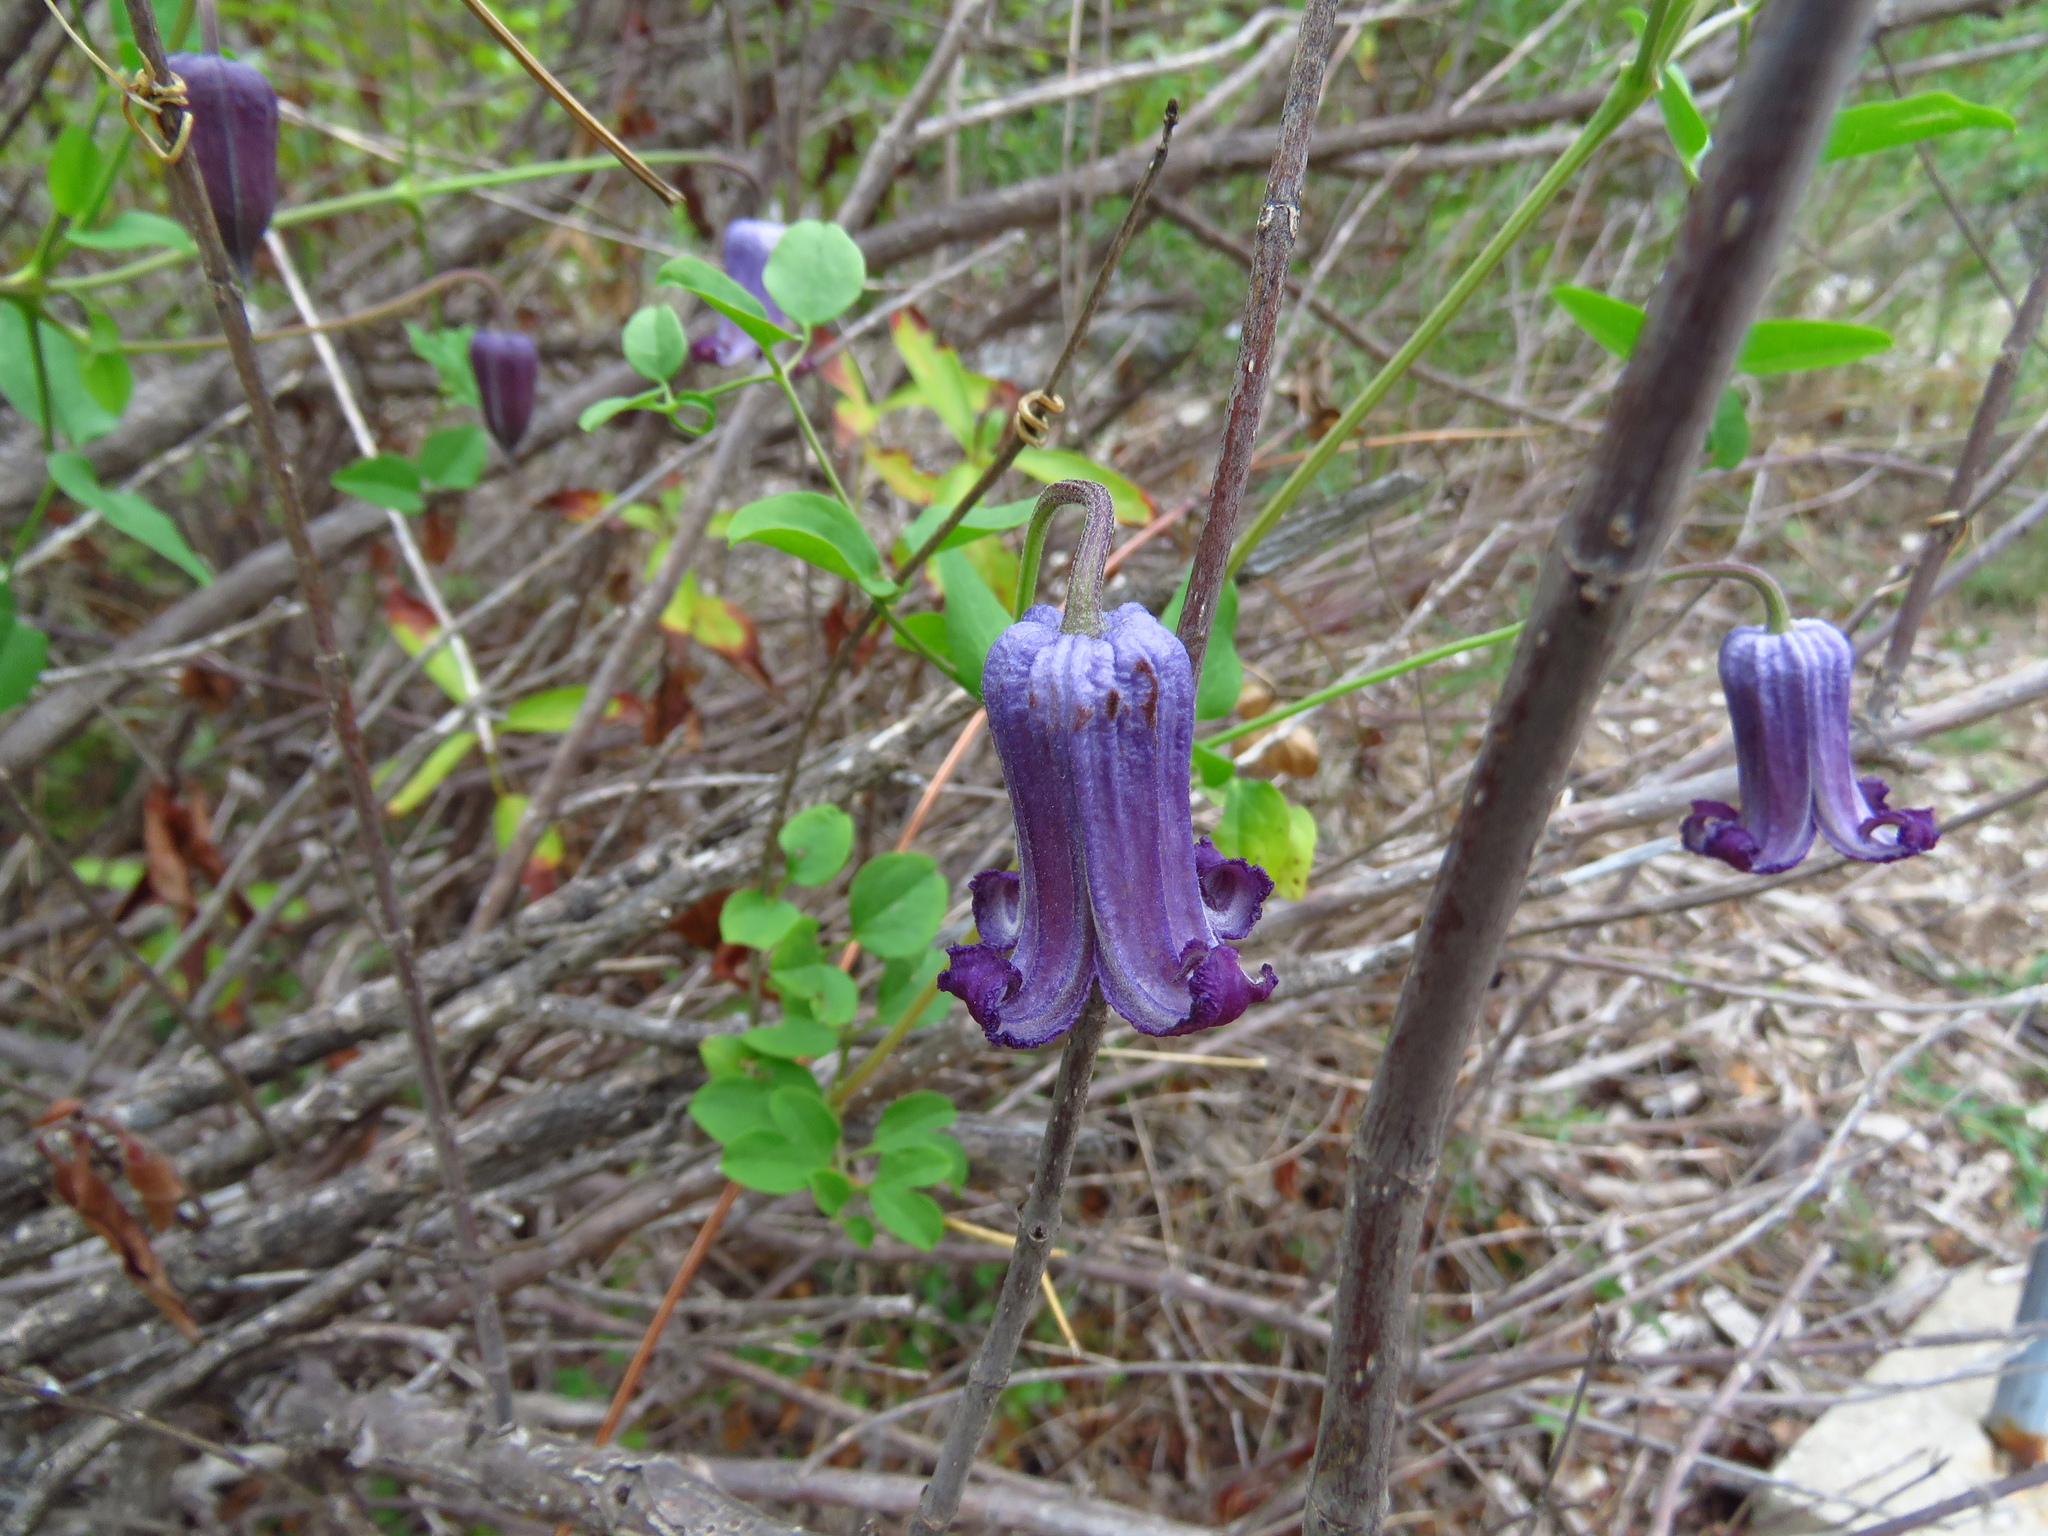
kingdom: Plantae
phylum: Tracheophyta
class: Magnoliopsida
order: Ranunculales
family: Ranunculaceae
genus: Clematis
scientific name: Clematis pitcheri
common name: Bellflower clematis
